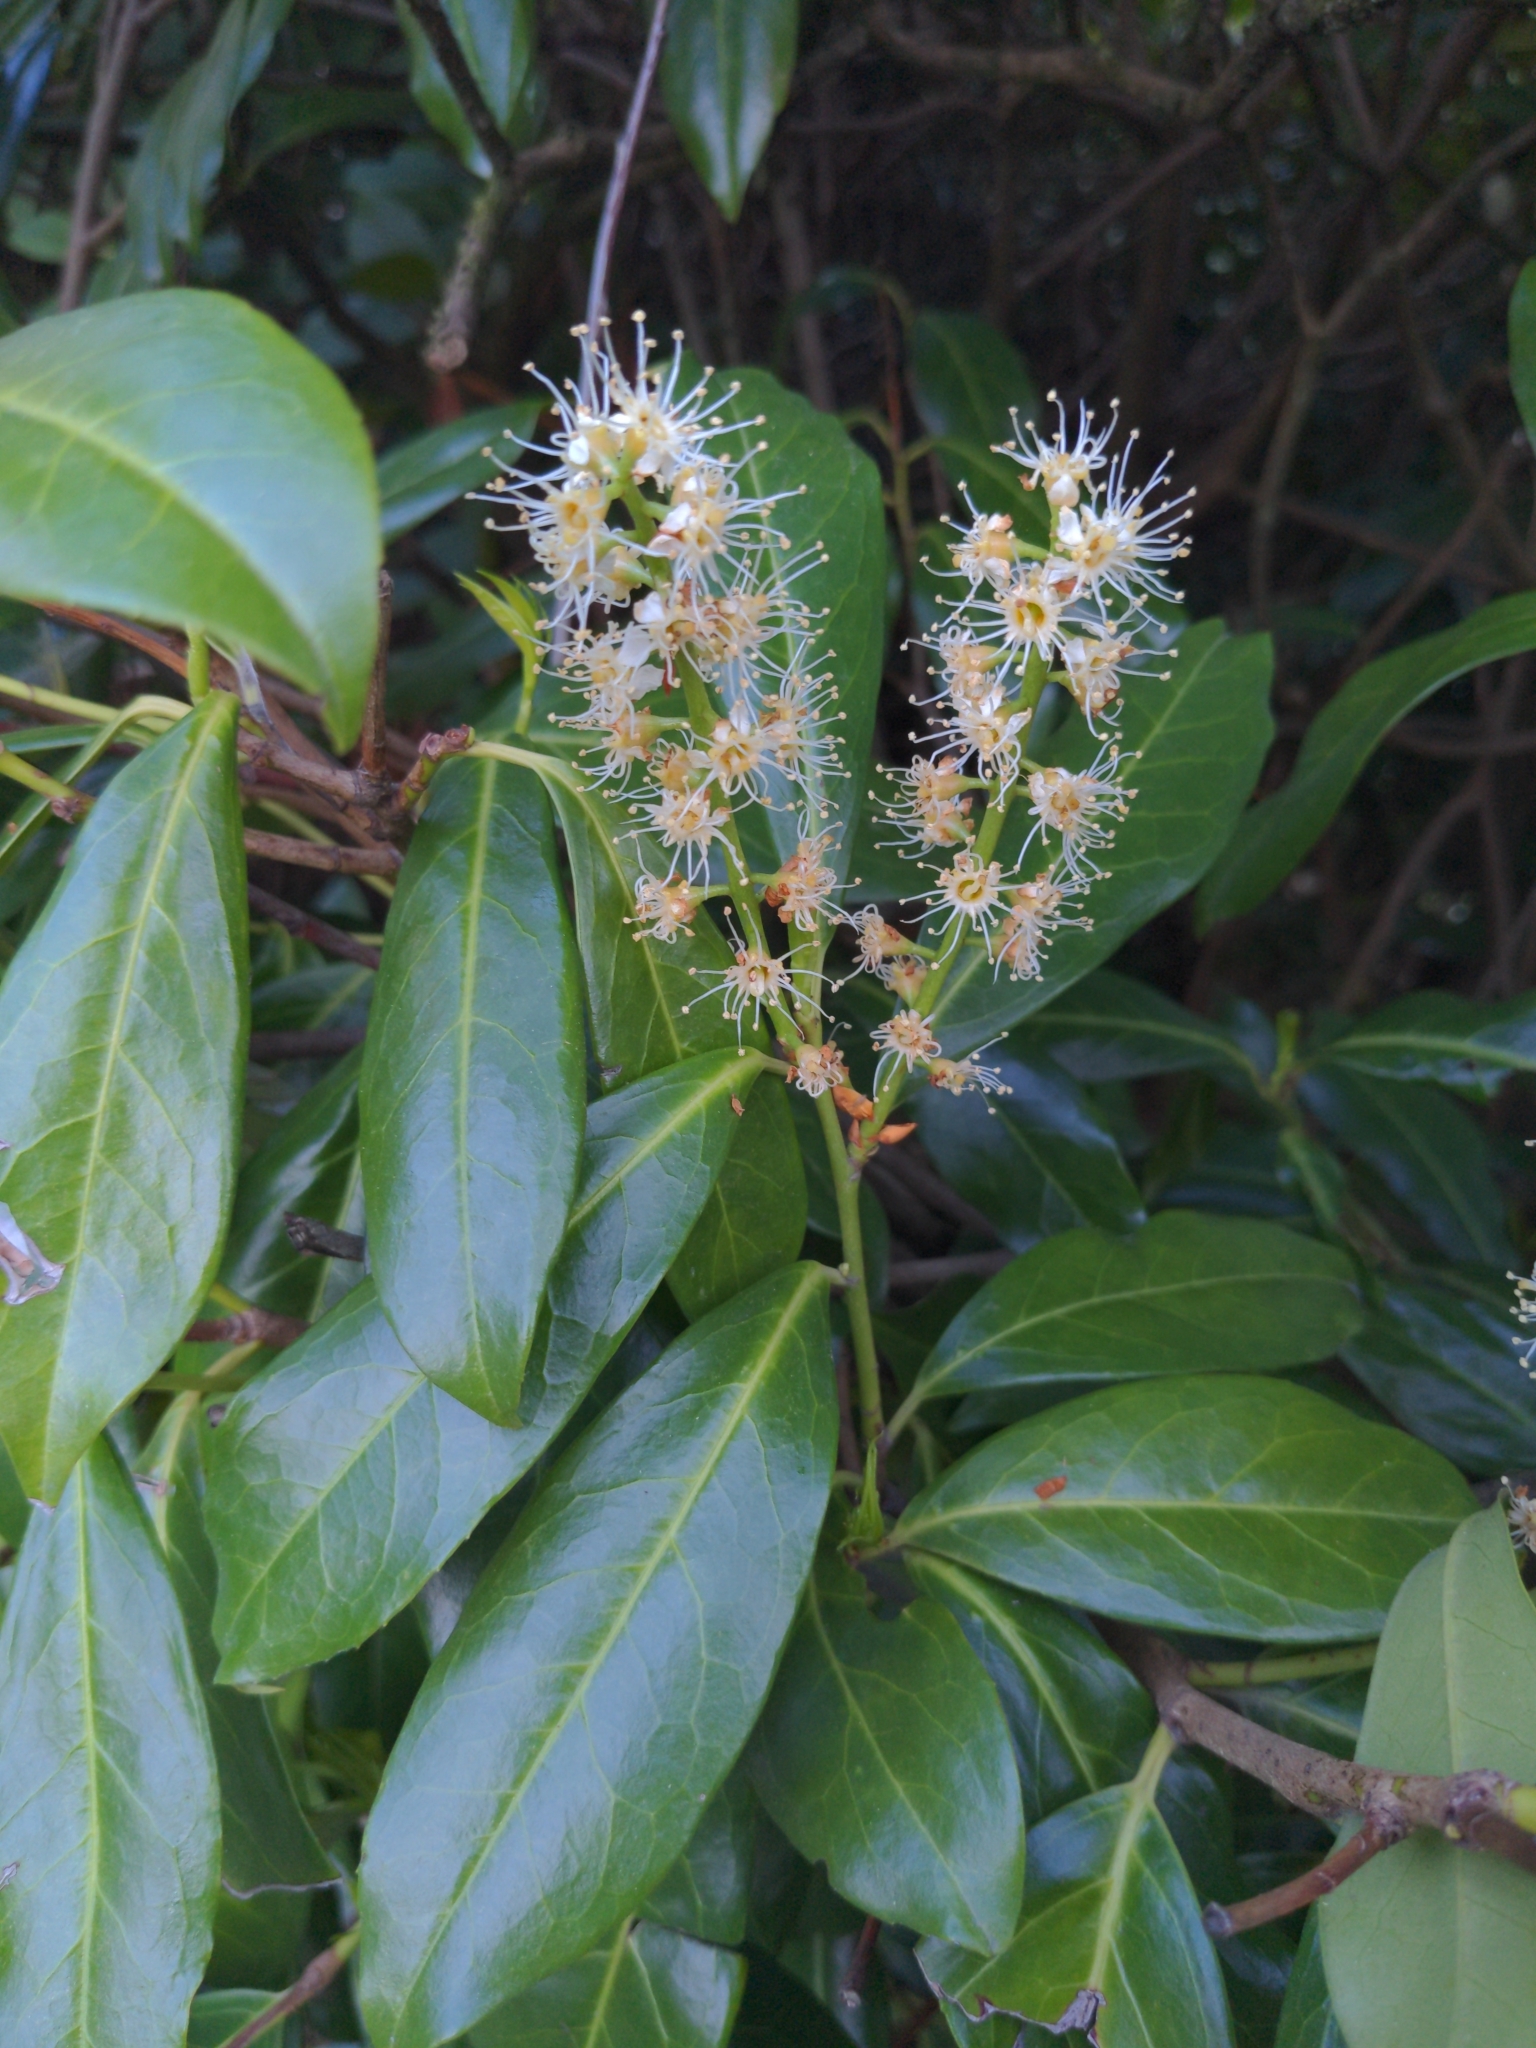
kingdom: Plantae
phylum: Tracheophyta
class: Magnoliopsida
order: Rosales
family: Rosaceae
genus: Prunus
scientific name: Prunus laurocerasus
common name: Cherry laurel
